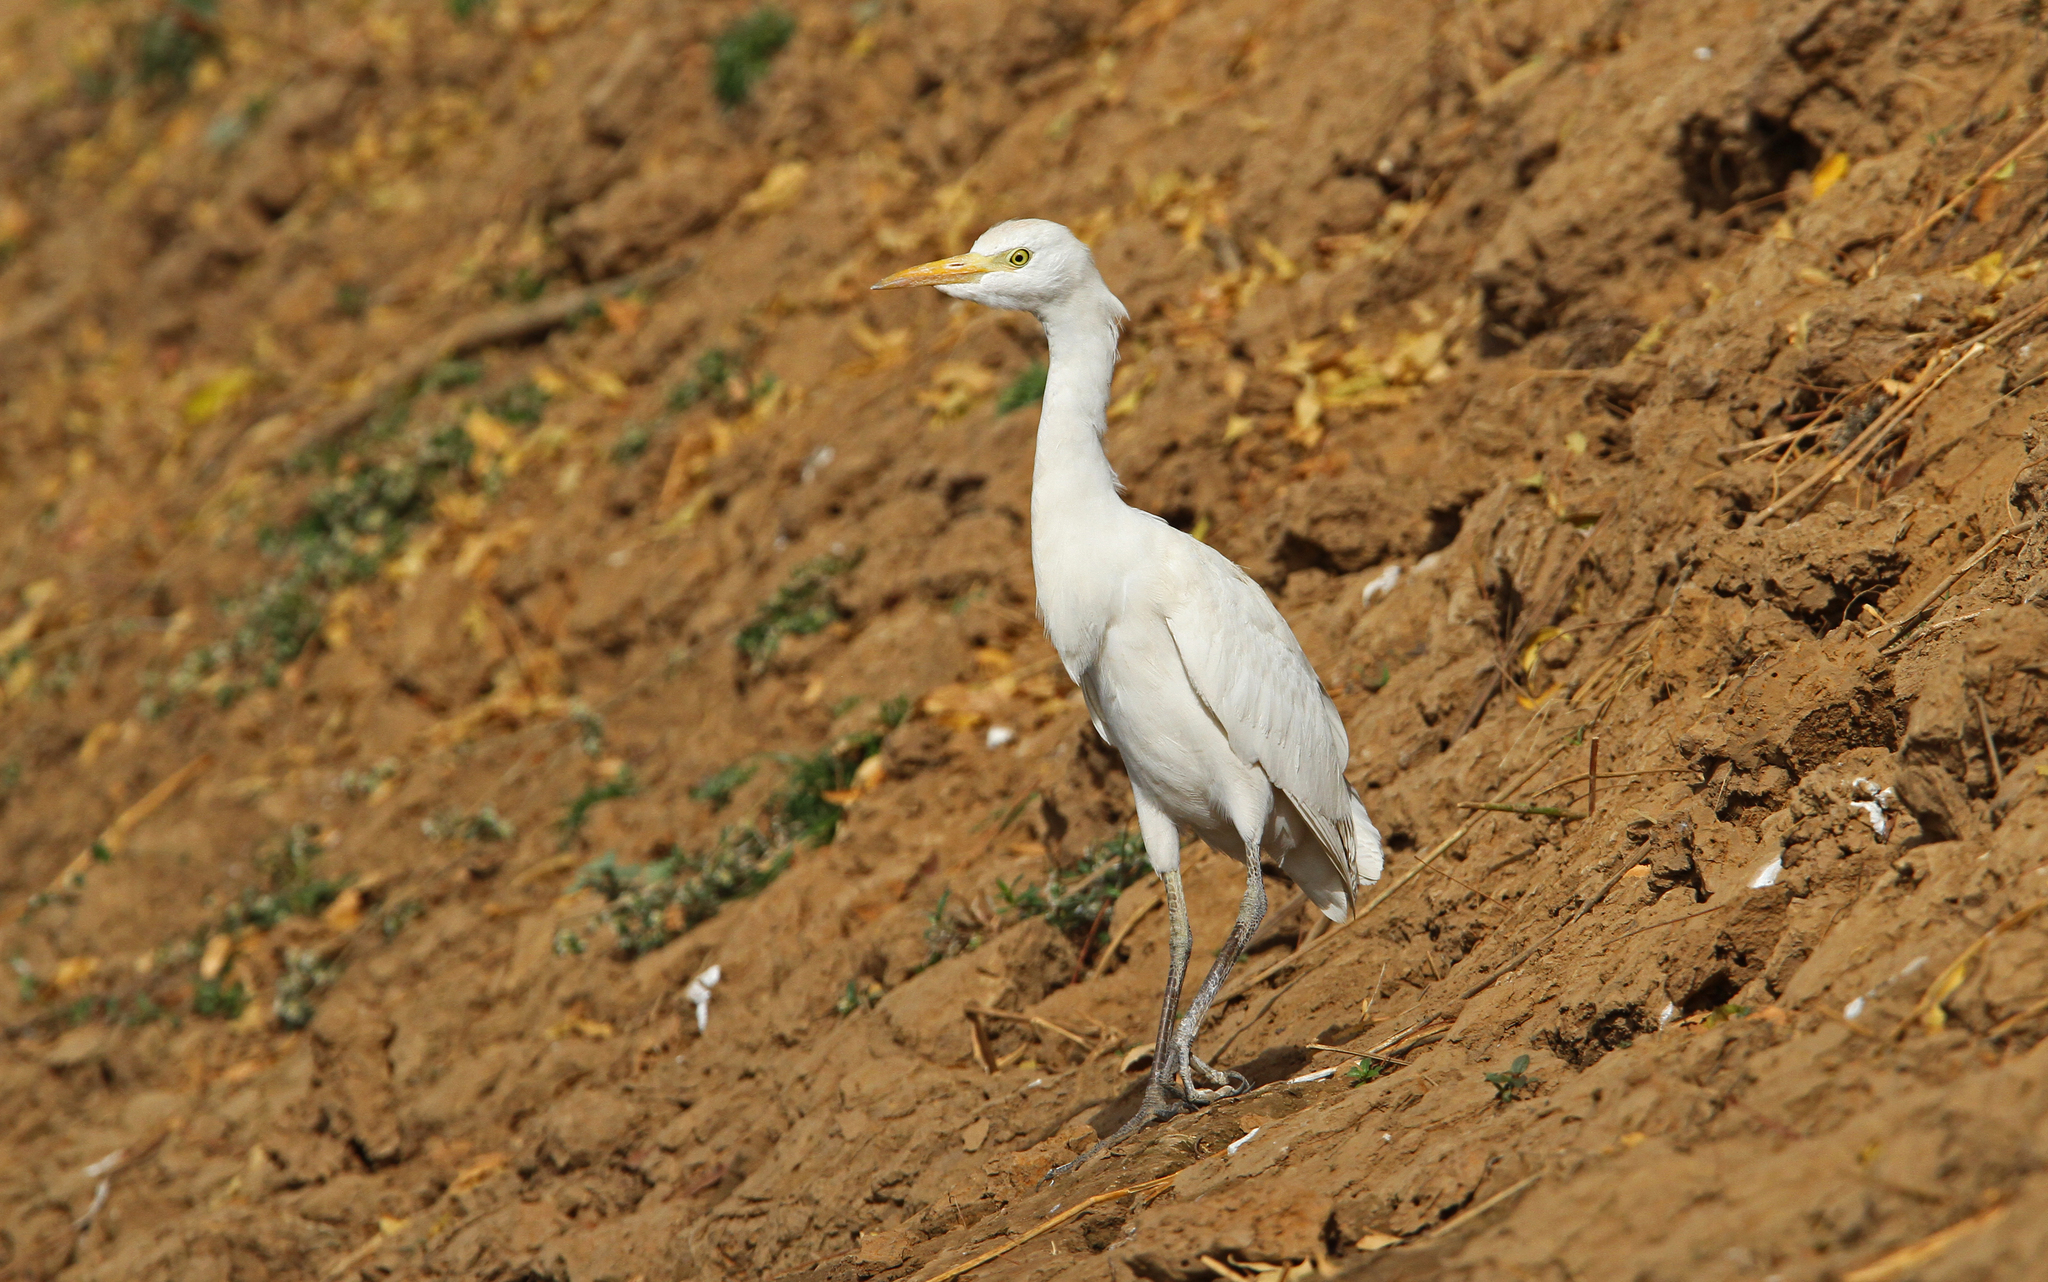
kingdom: Animalia
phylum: Chordata
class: Aves
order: Pelecaniformes
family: Ardeidae
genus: Bubulcus
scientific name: Bubulcus ibis
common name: Cattle egret
